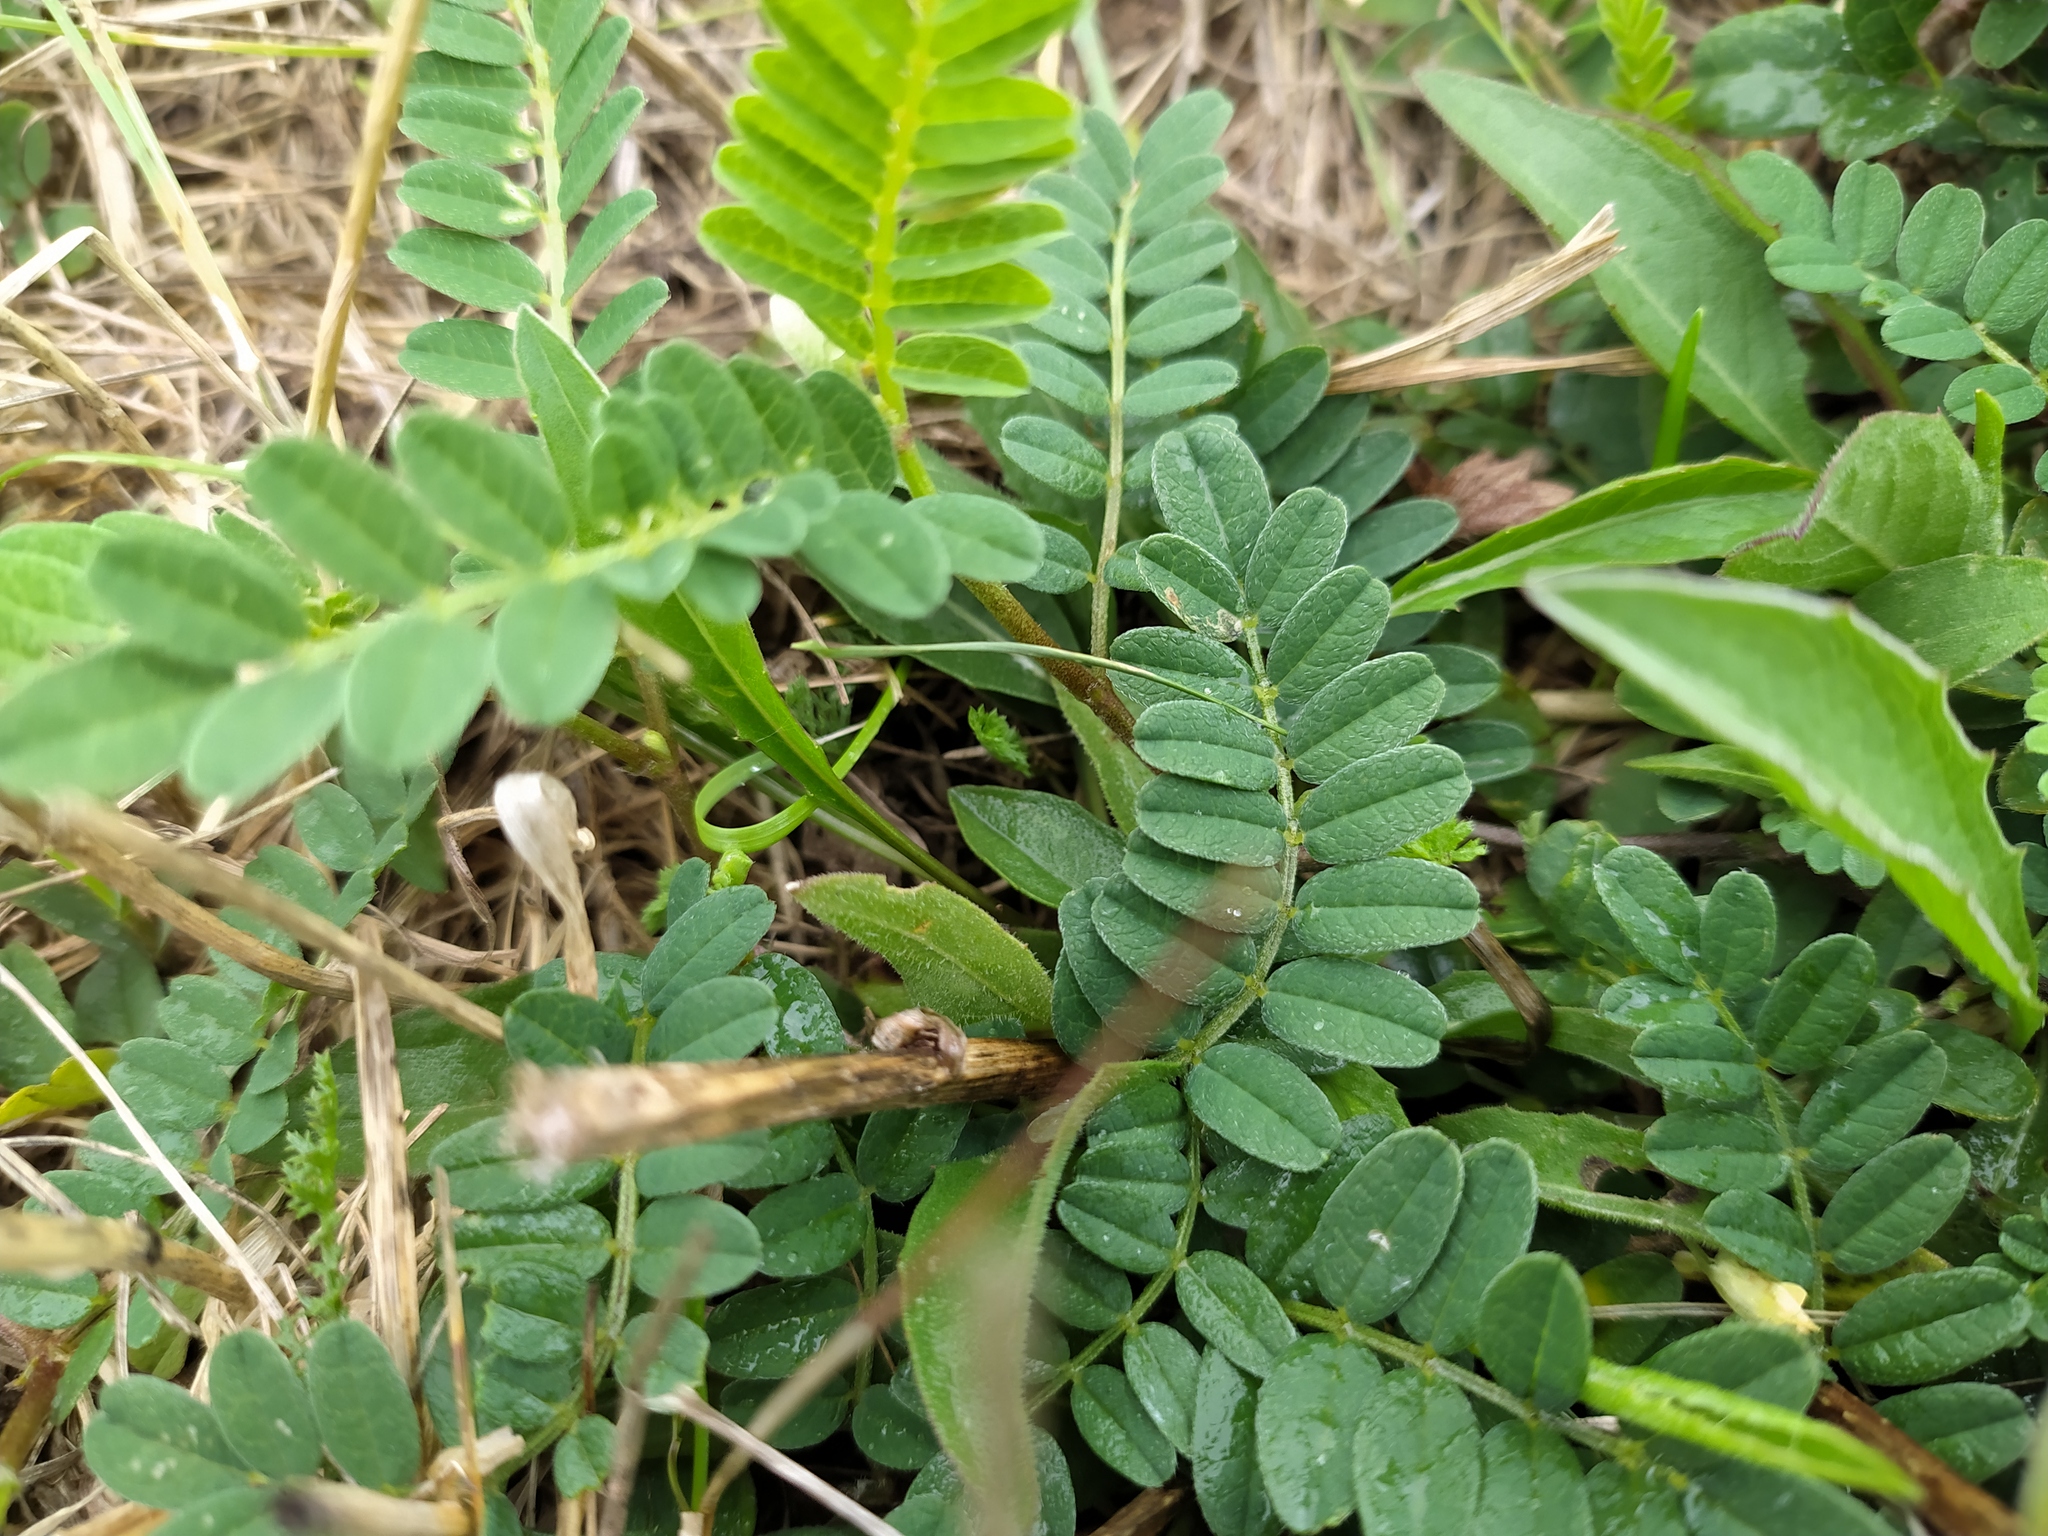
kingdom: Plantae
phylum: Tracheophyta
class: Magnoliopsida
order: Fabales
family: Fabaceae
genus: Astragalus
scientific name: Astragalus cicer
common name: Chick-pea milk-vetch
